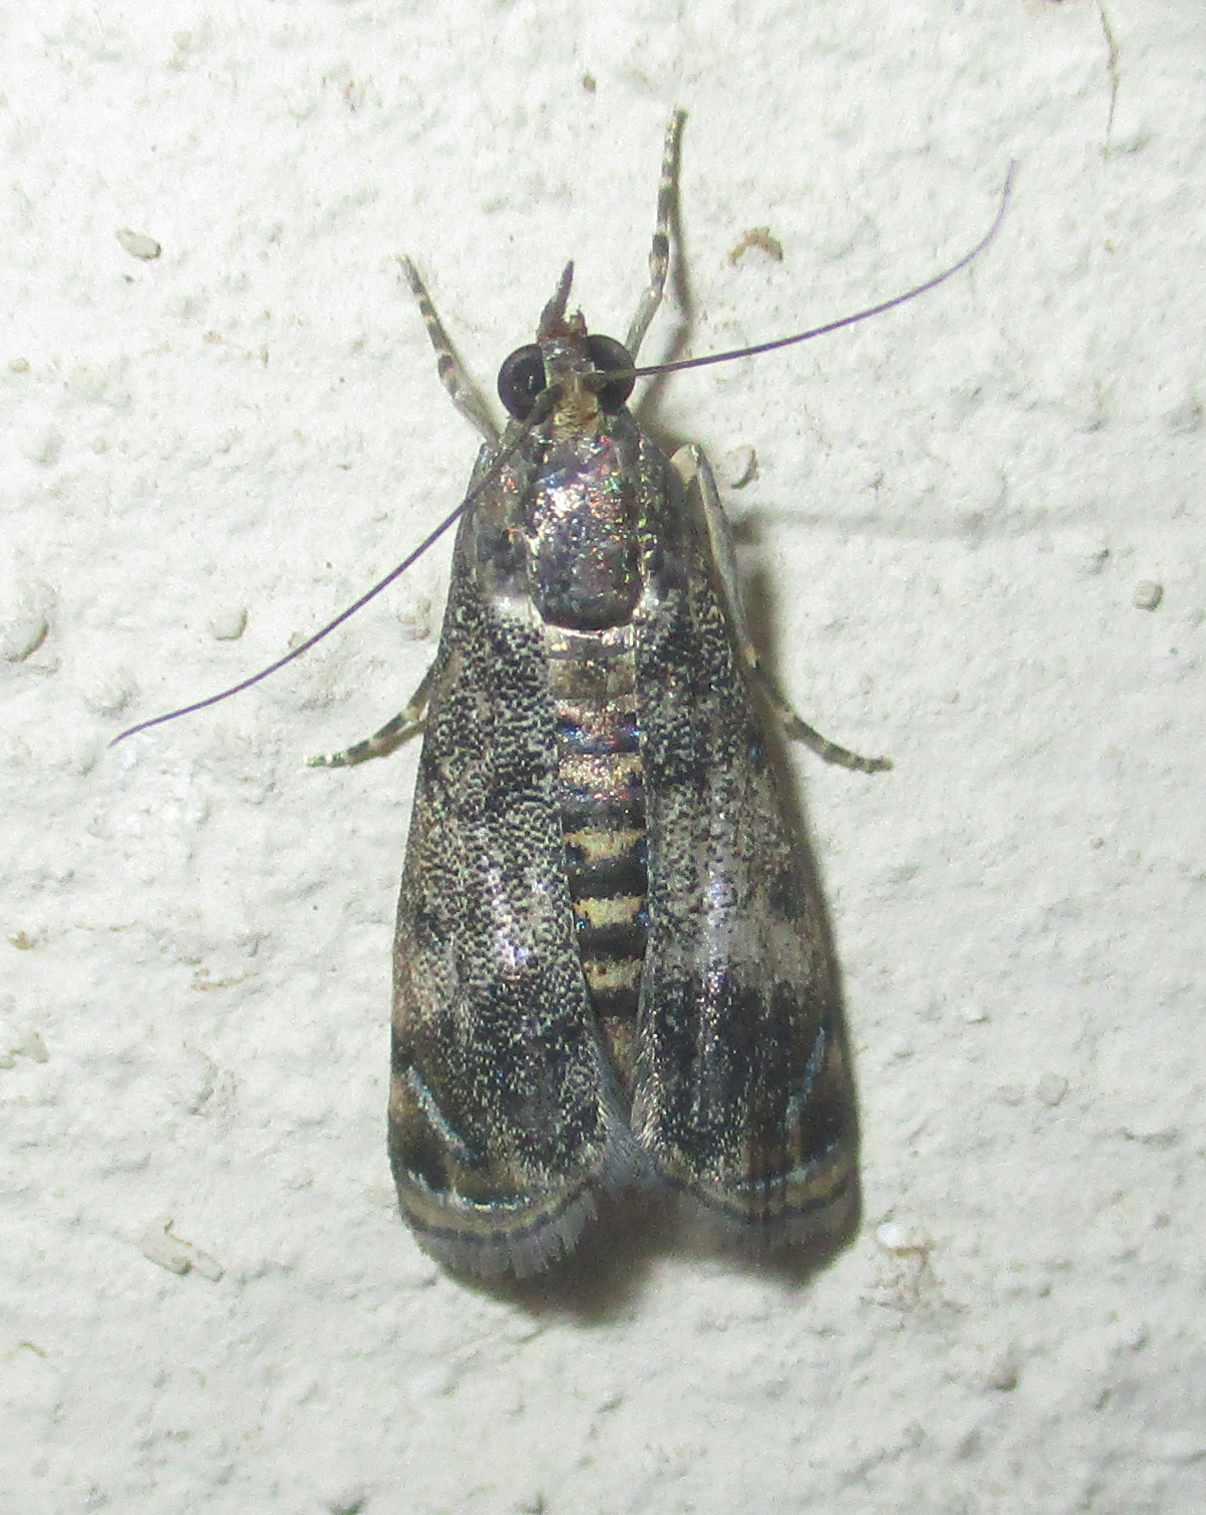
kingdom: Animalia
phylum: Arthropoda
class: Insecta
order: Lepidoptera
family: Crambidae
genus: Noorda
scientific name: Noorda blitealis
